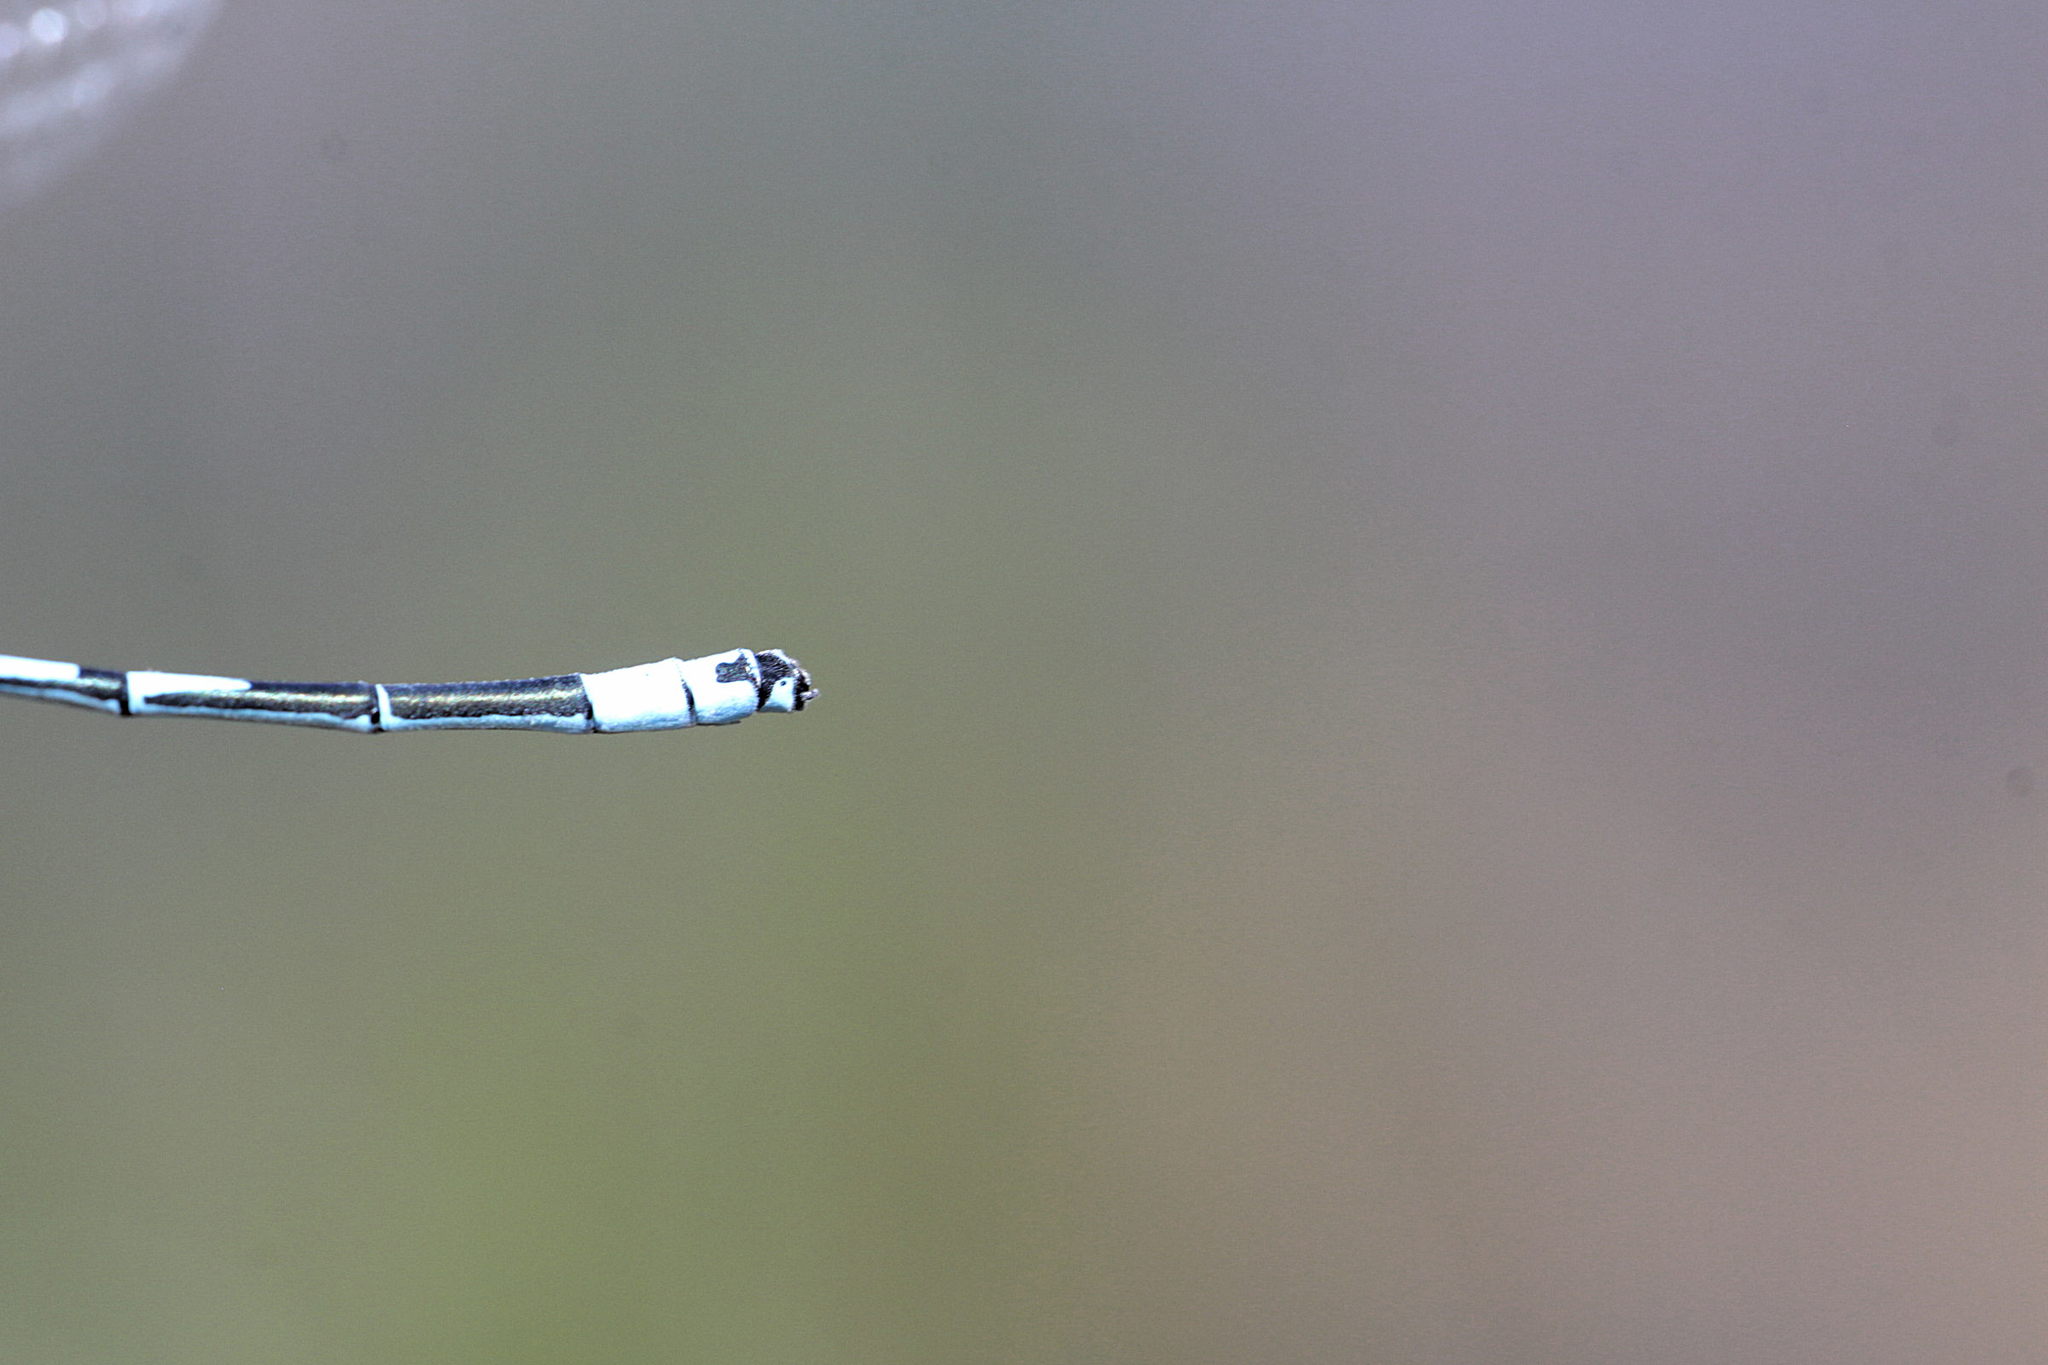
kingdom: Animalia
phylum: Arthropoda
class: Insecta
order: Odonata
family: Coenagrionidae
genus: Coenagrion
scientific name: Coenagrion puella
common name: Azure damselfly
